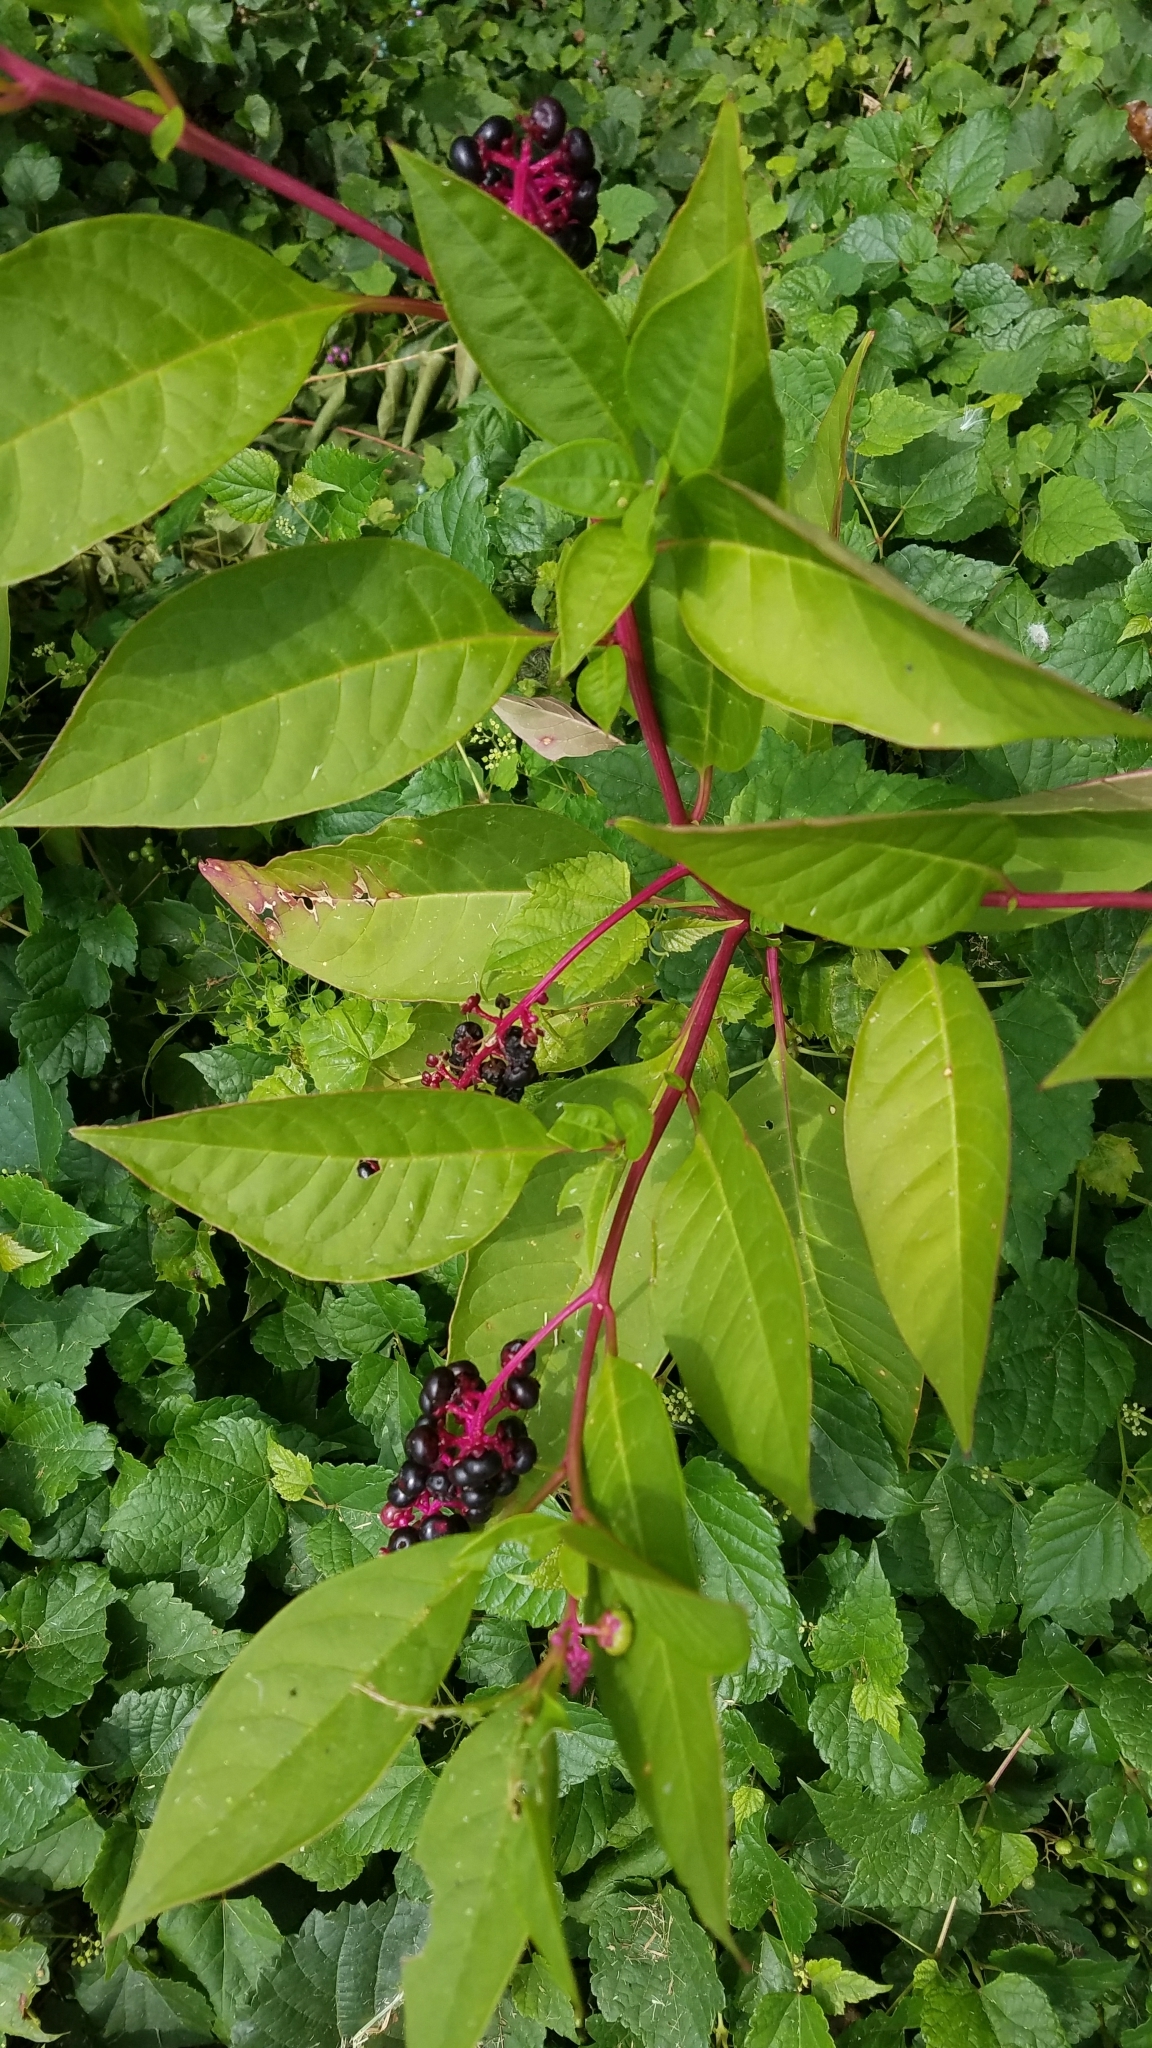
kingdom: Plantae
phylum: Tracheophyta
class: Magnoliopsida
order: Caryophyllales
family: Phytolaccaceae
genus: Phytolacca
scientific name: Phytolacca americana
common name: American pokeweed
